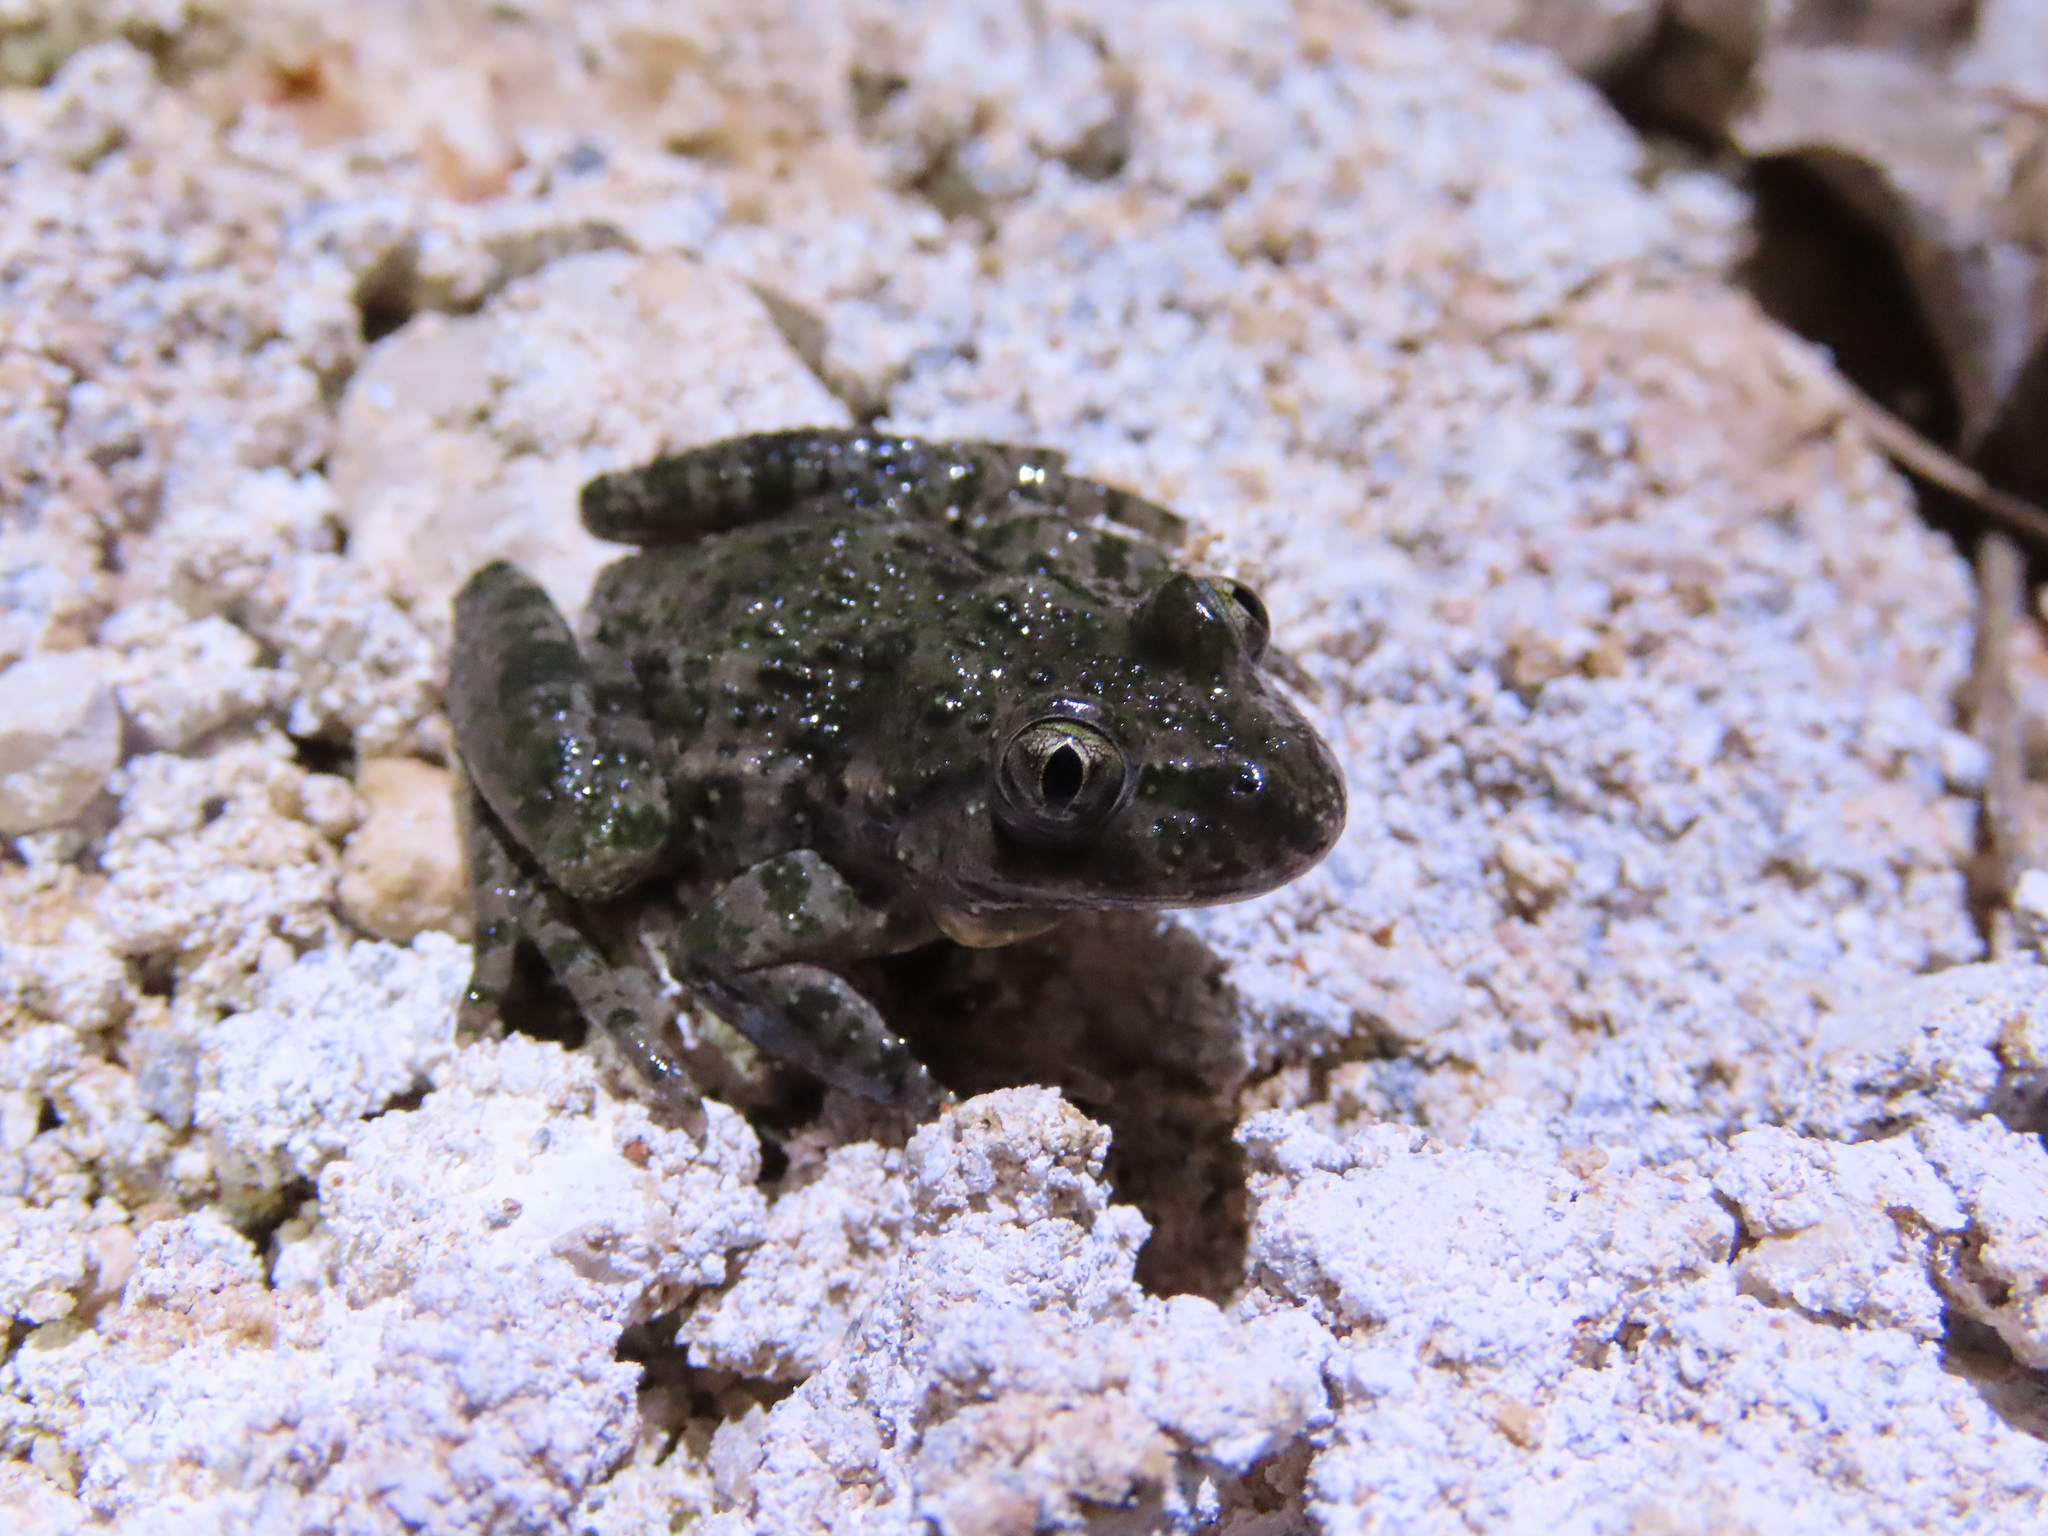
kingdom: Animalia
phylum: Chordata
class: Amphibia
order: Anura
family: Pelodytidae
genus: Pelodytes
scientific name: Pelodytes hespericus
